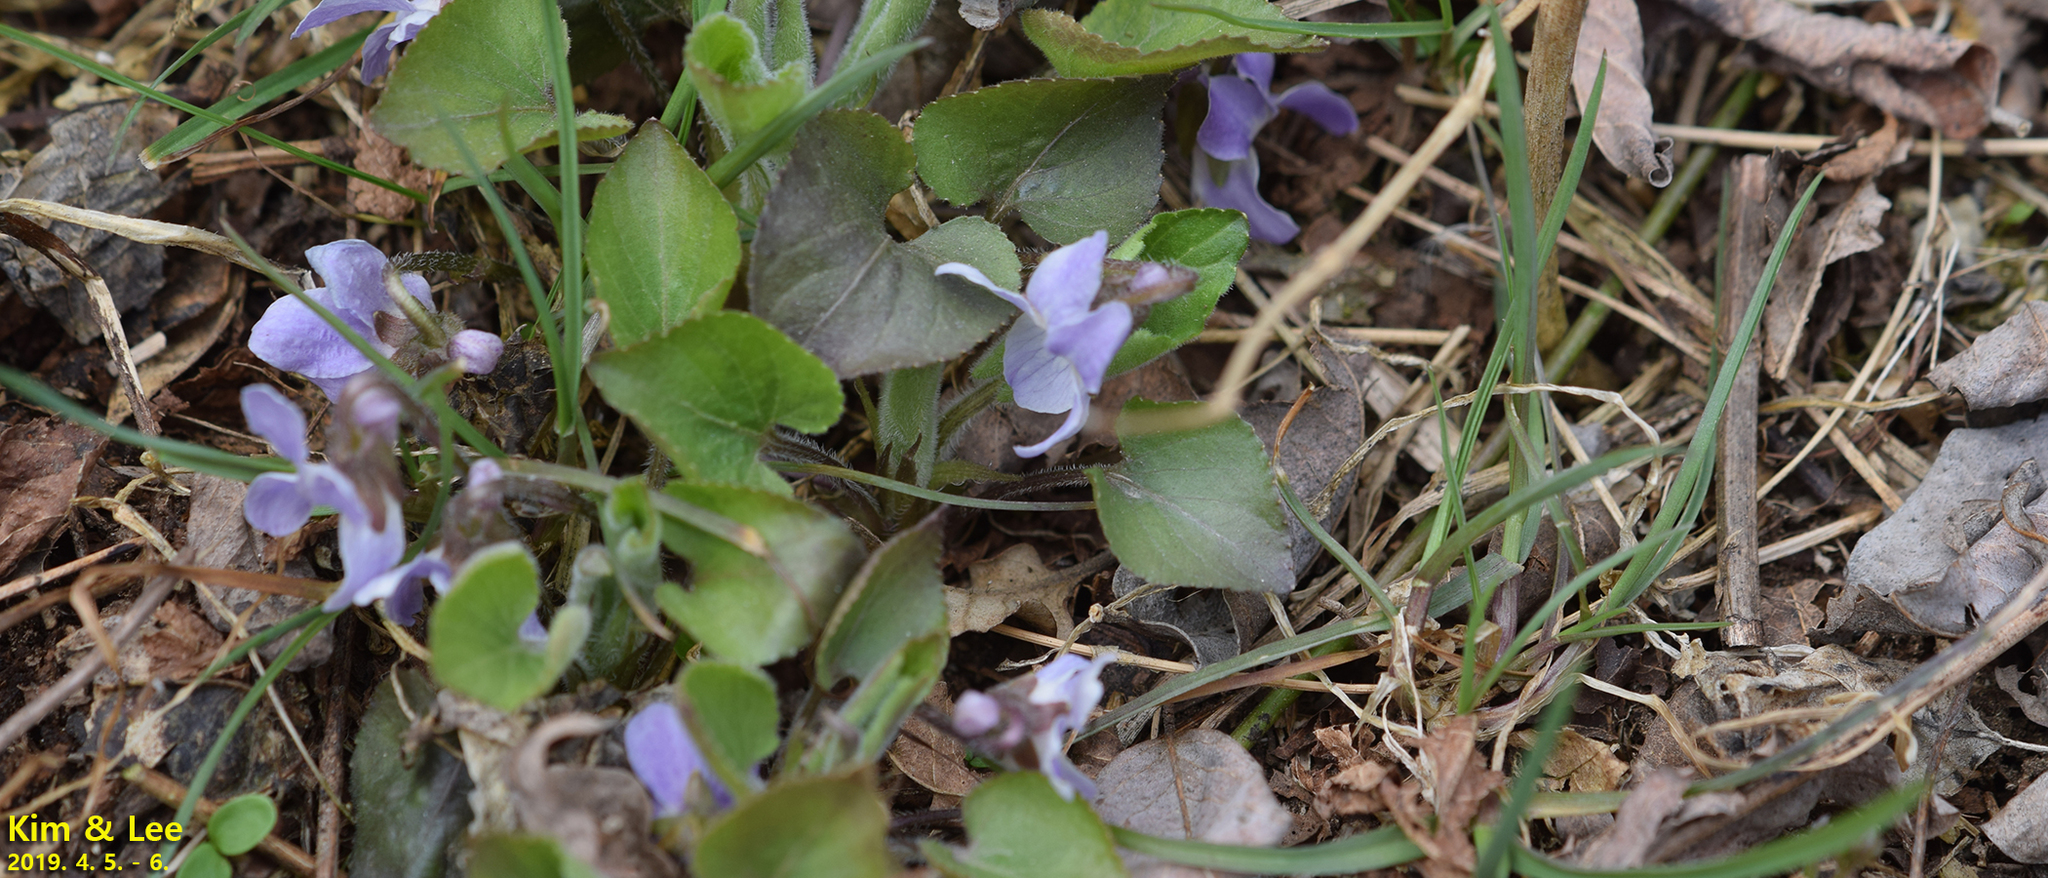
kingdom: Plantae
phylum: Tracheophyta
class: Magnoliopsida
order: Malpighiales
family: Violaceae
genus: Viola
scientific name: Viola collina
